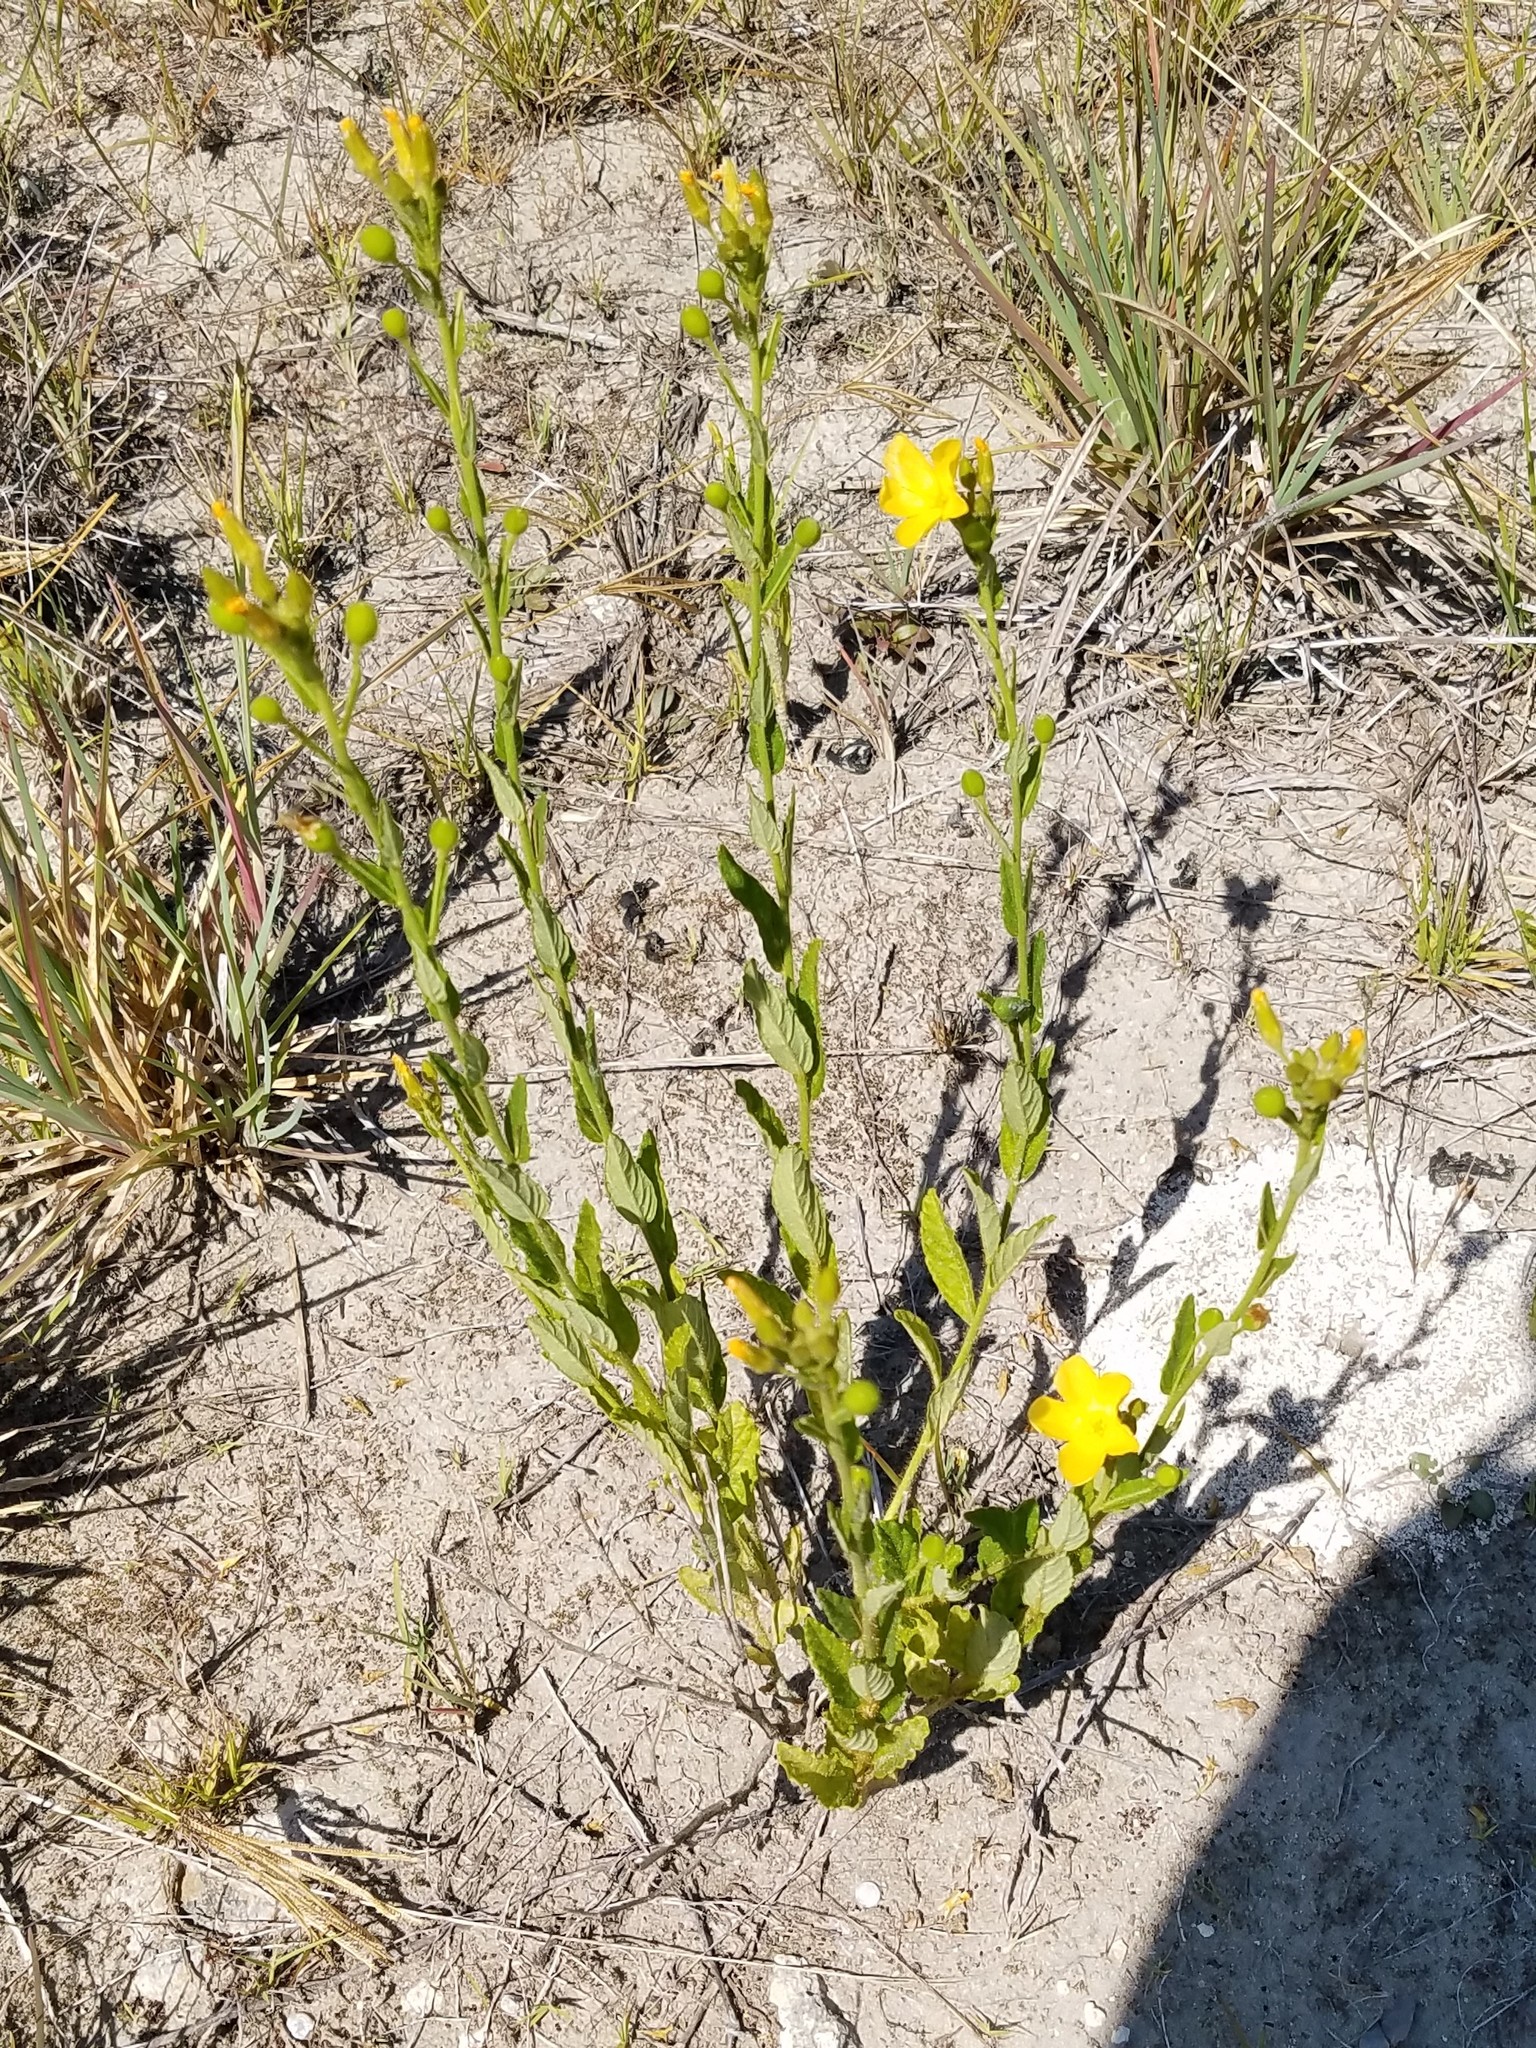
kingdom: Plantae
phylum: Tracheophyta
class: Magnoliopsida
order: Malpighiales
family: Turneraceae
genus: Piriqueta
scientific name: Piriqueta cistoides
